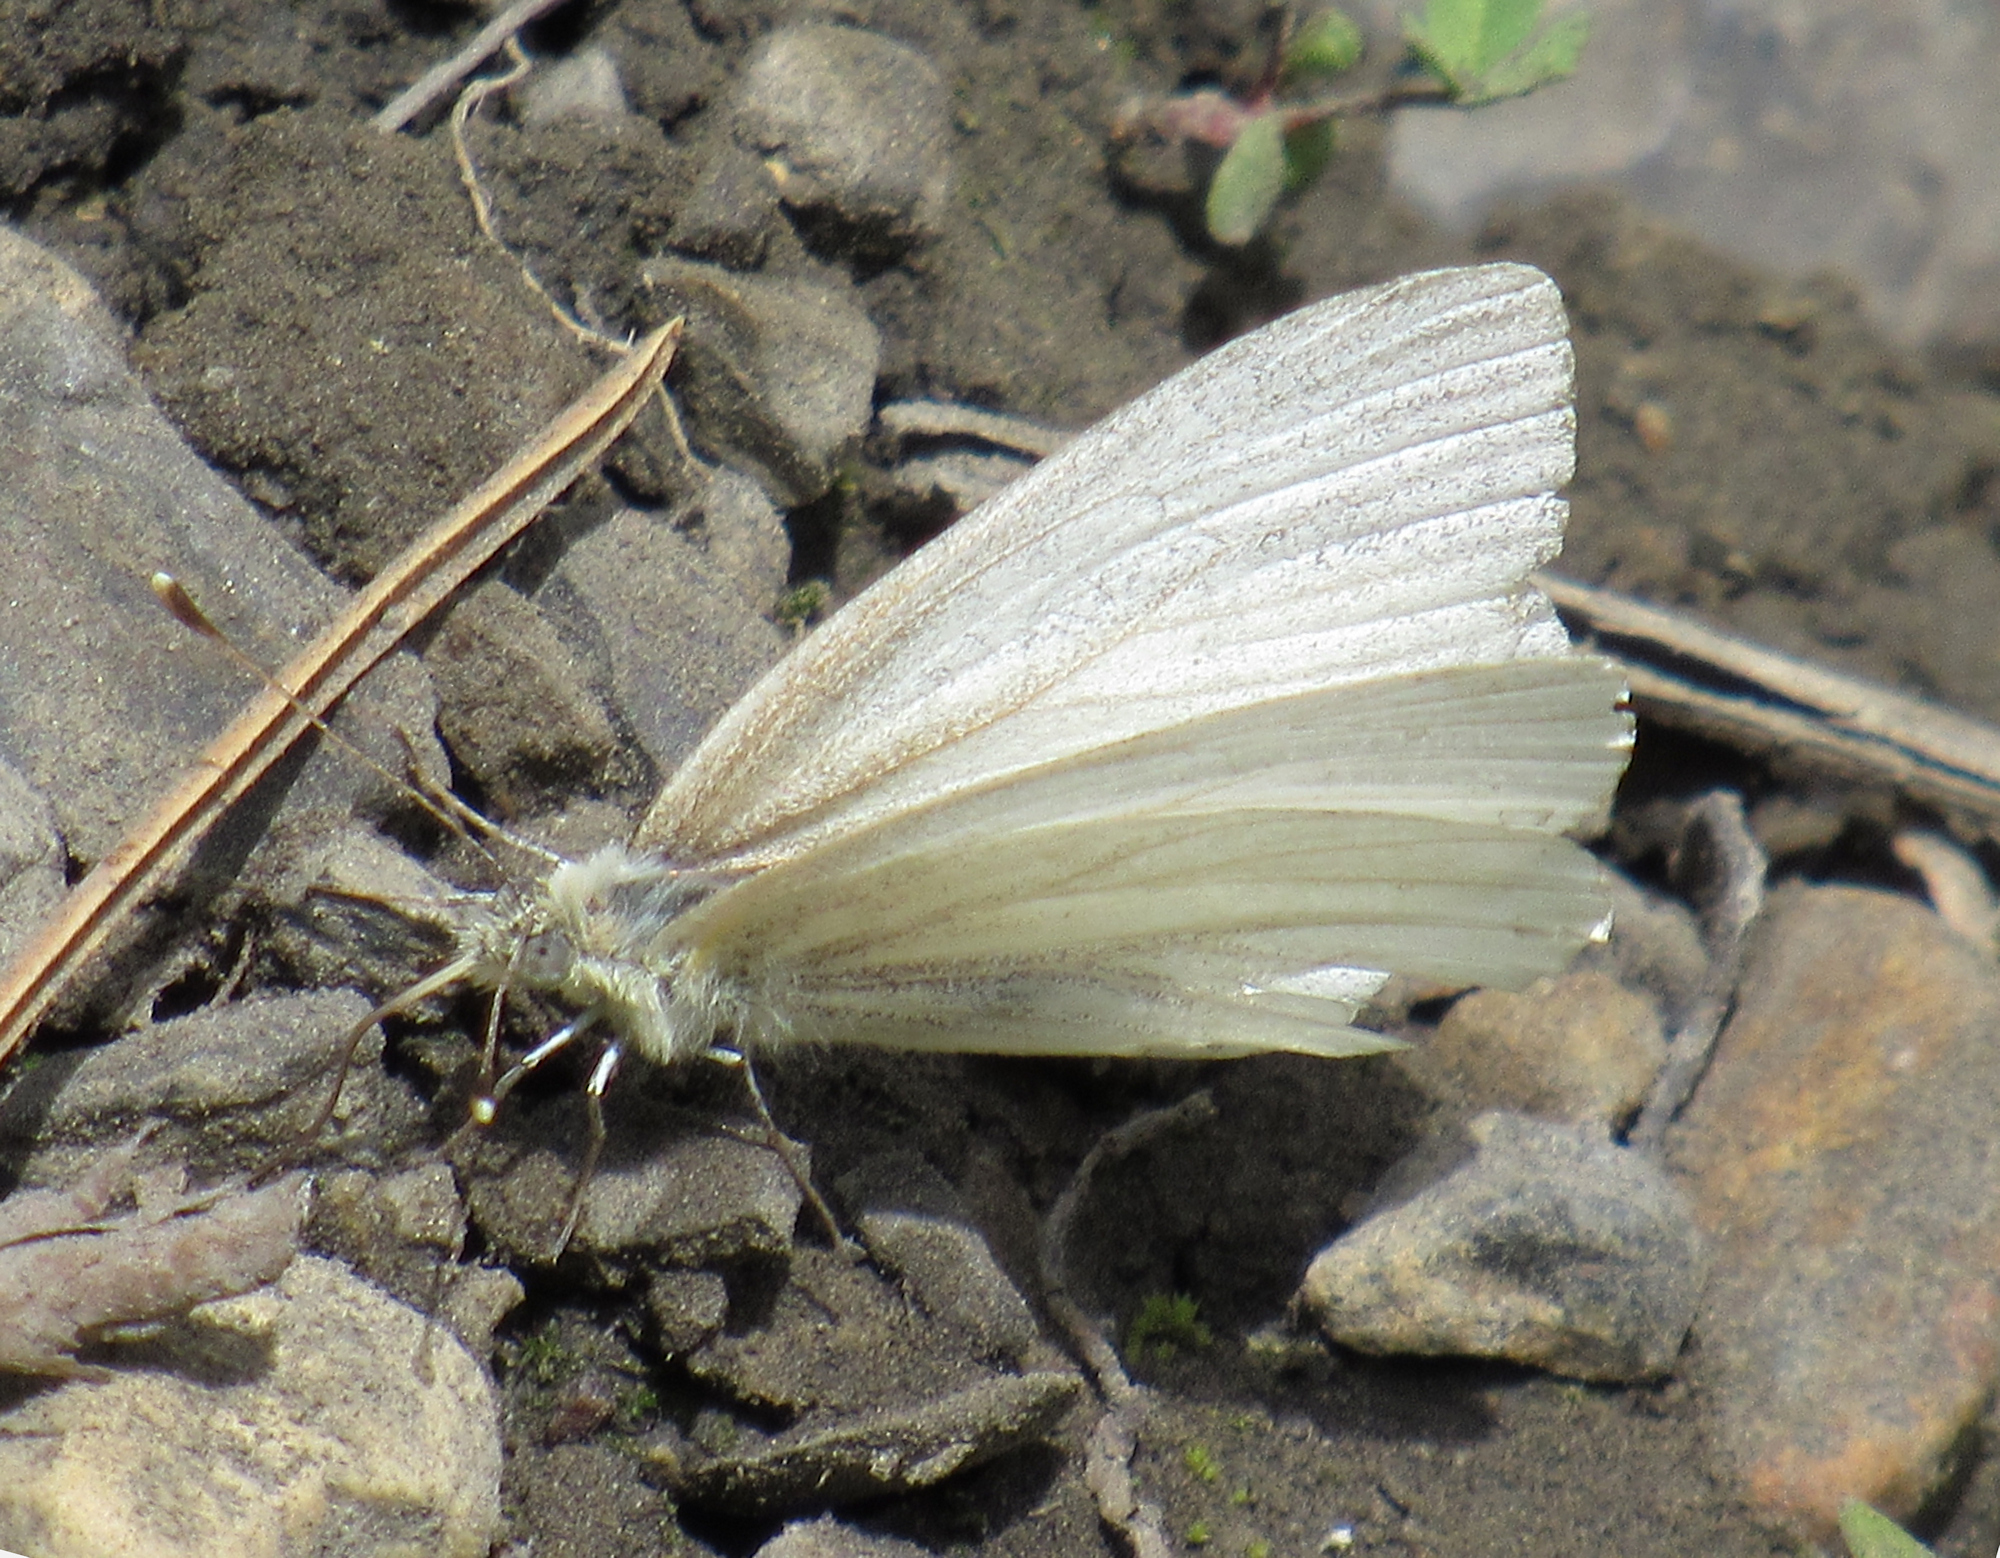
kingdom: Animalia
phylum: Arthropoda
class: Insecta
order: Lepidoptera
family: Pieridae
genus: Pieris
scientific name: Pieris marginalis
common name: Margined white
